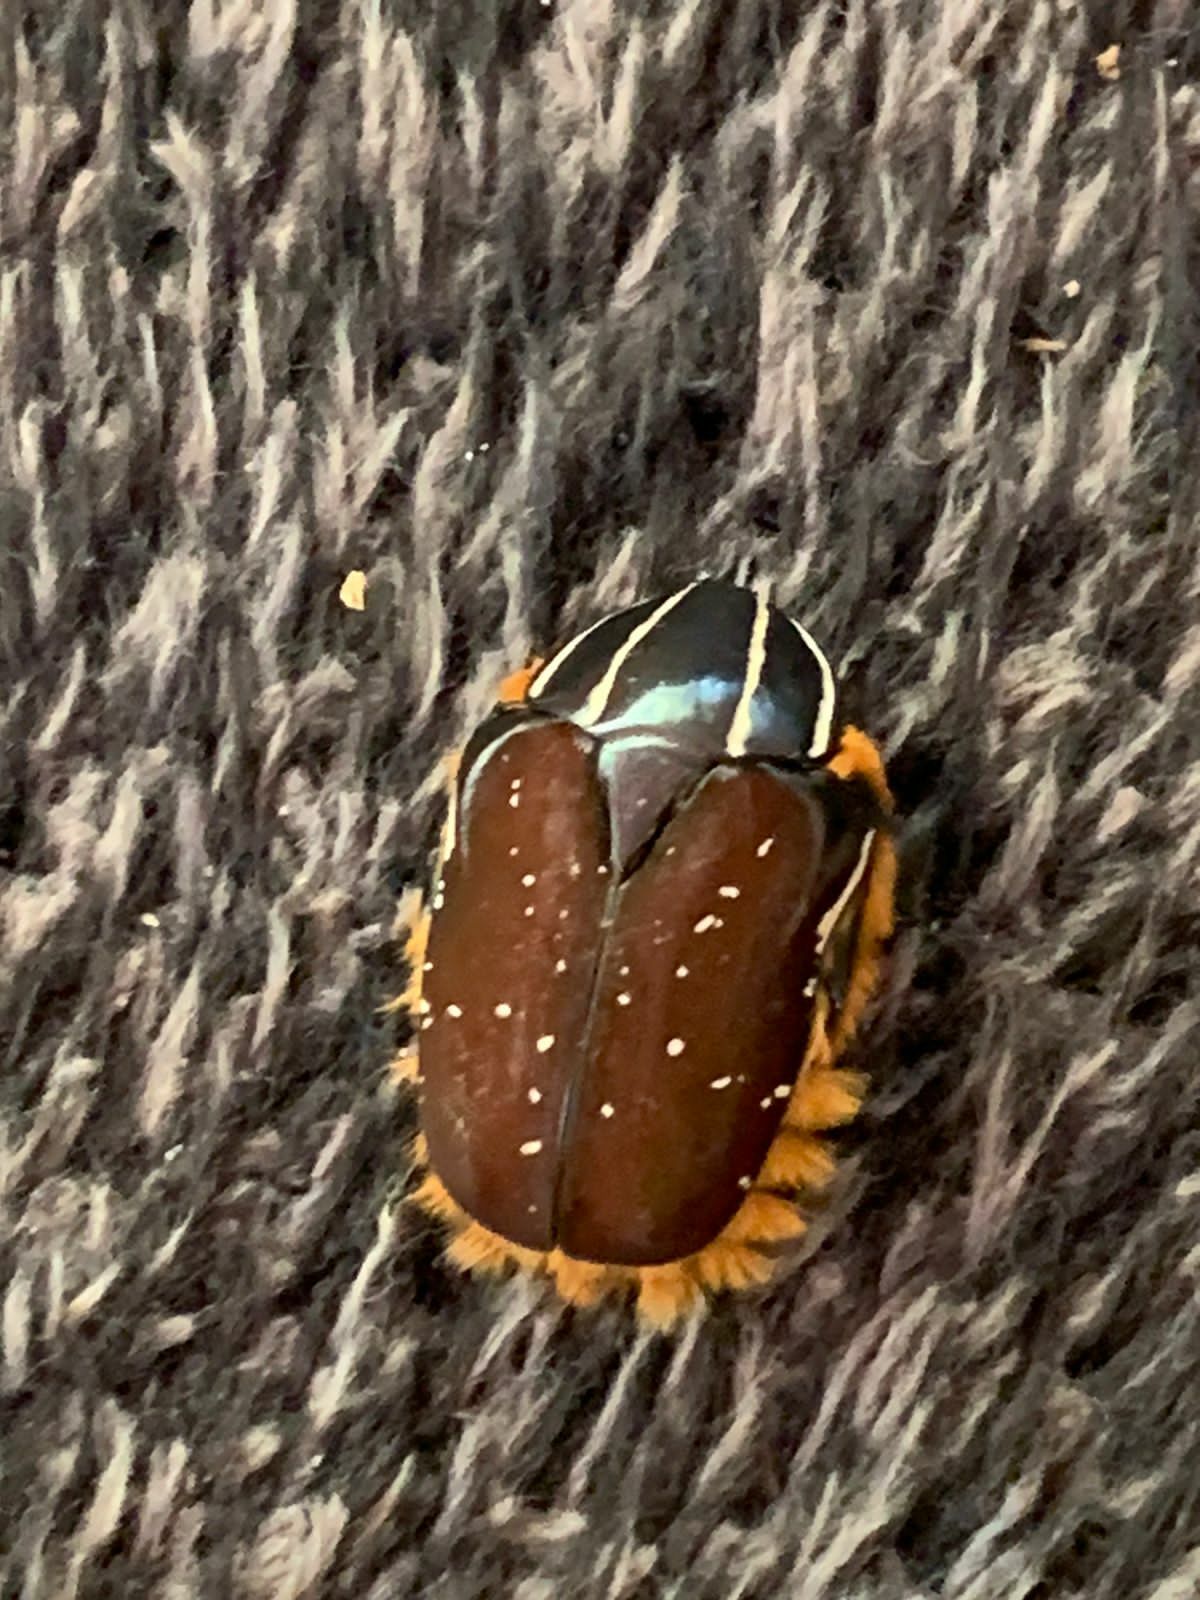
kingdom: Animalia
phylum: Arthropoda
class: Insecta
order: Coleoptera
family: Scarabaeidae
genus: Trichostetha
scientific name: Trichostetha fascicularis
